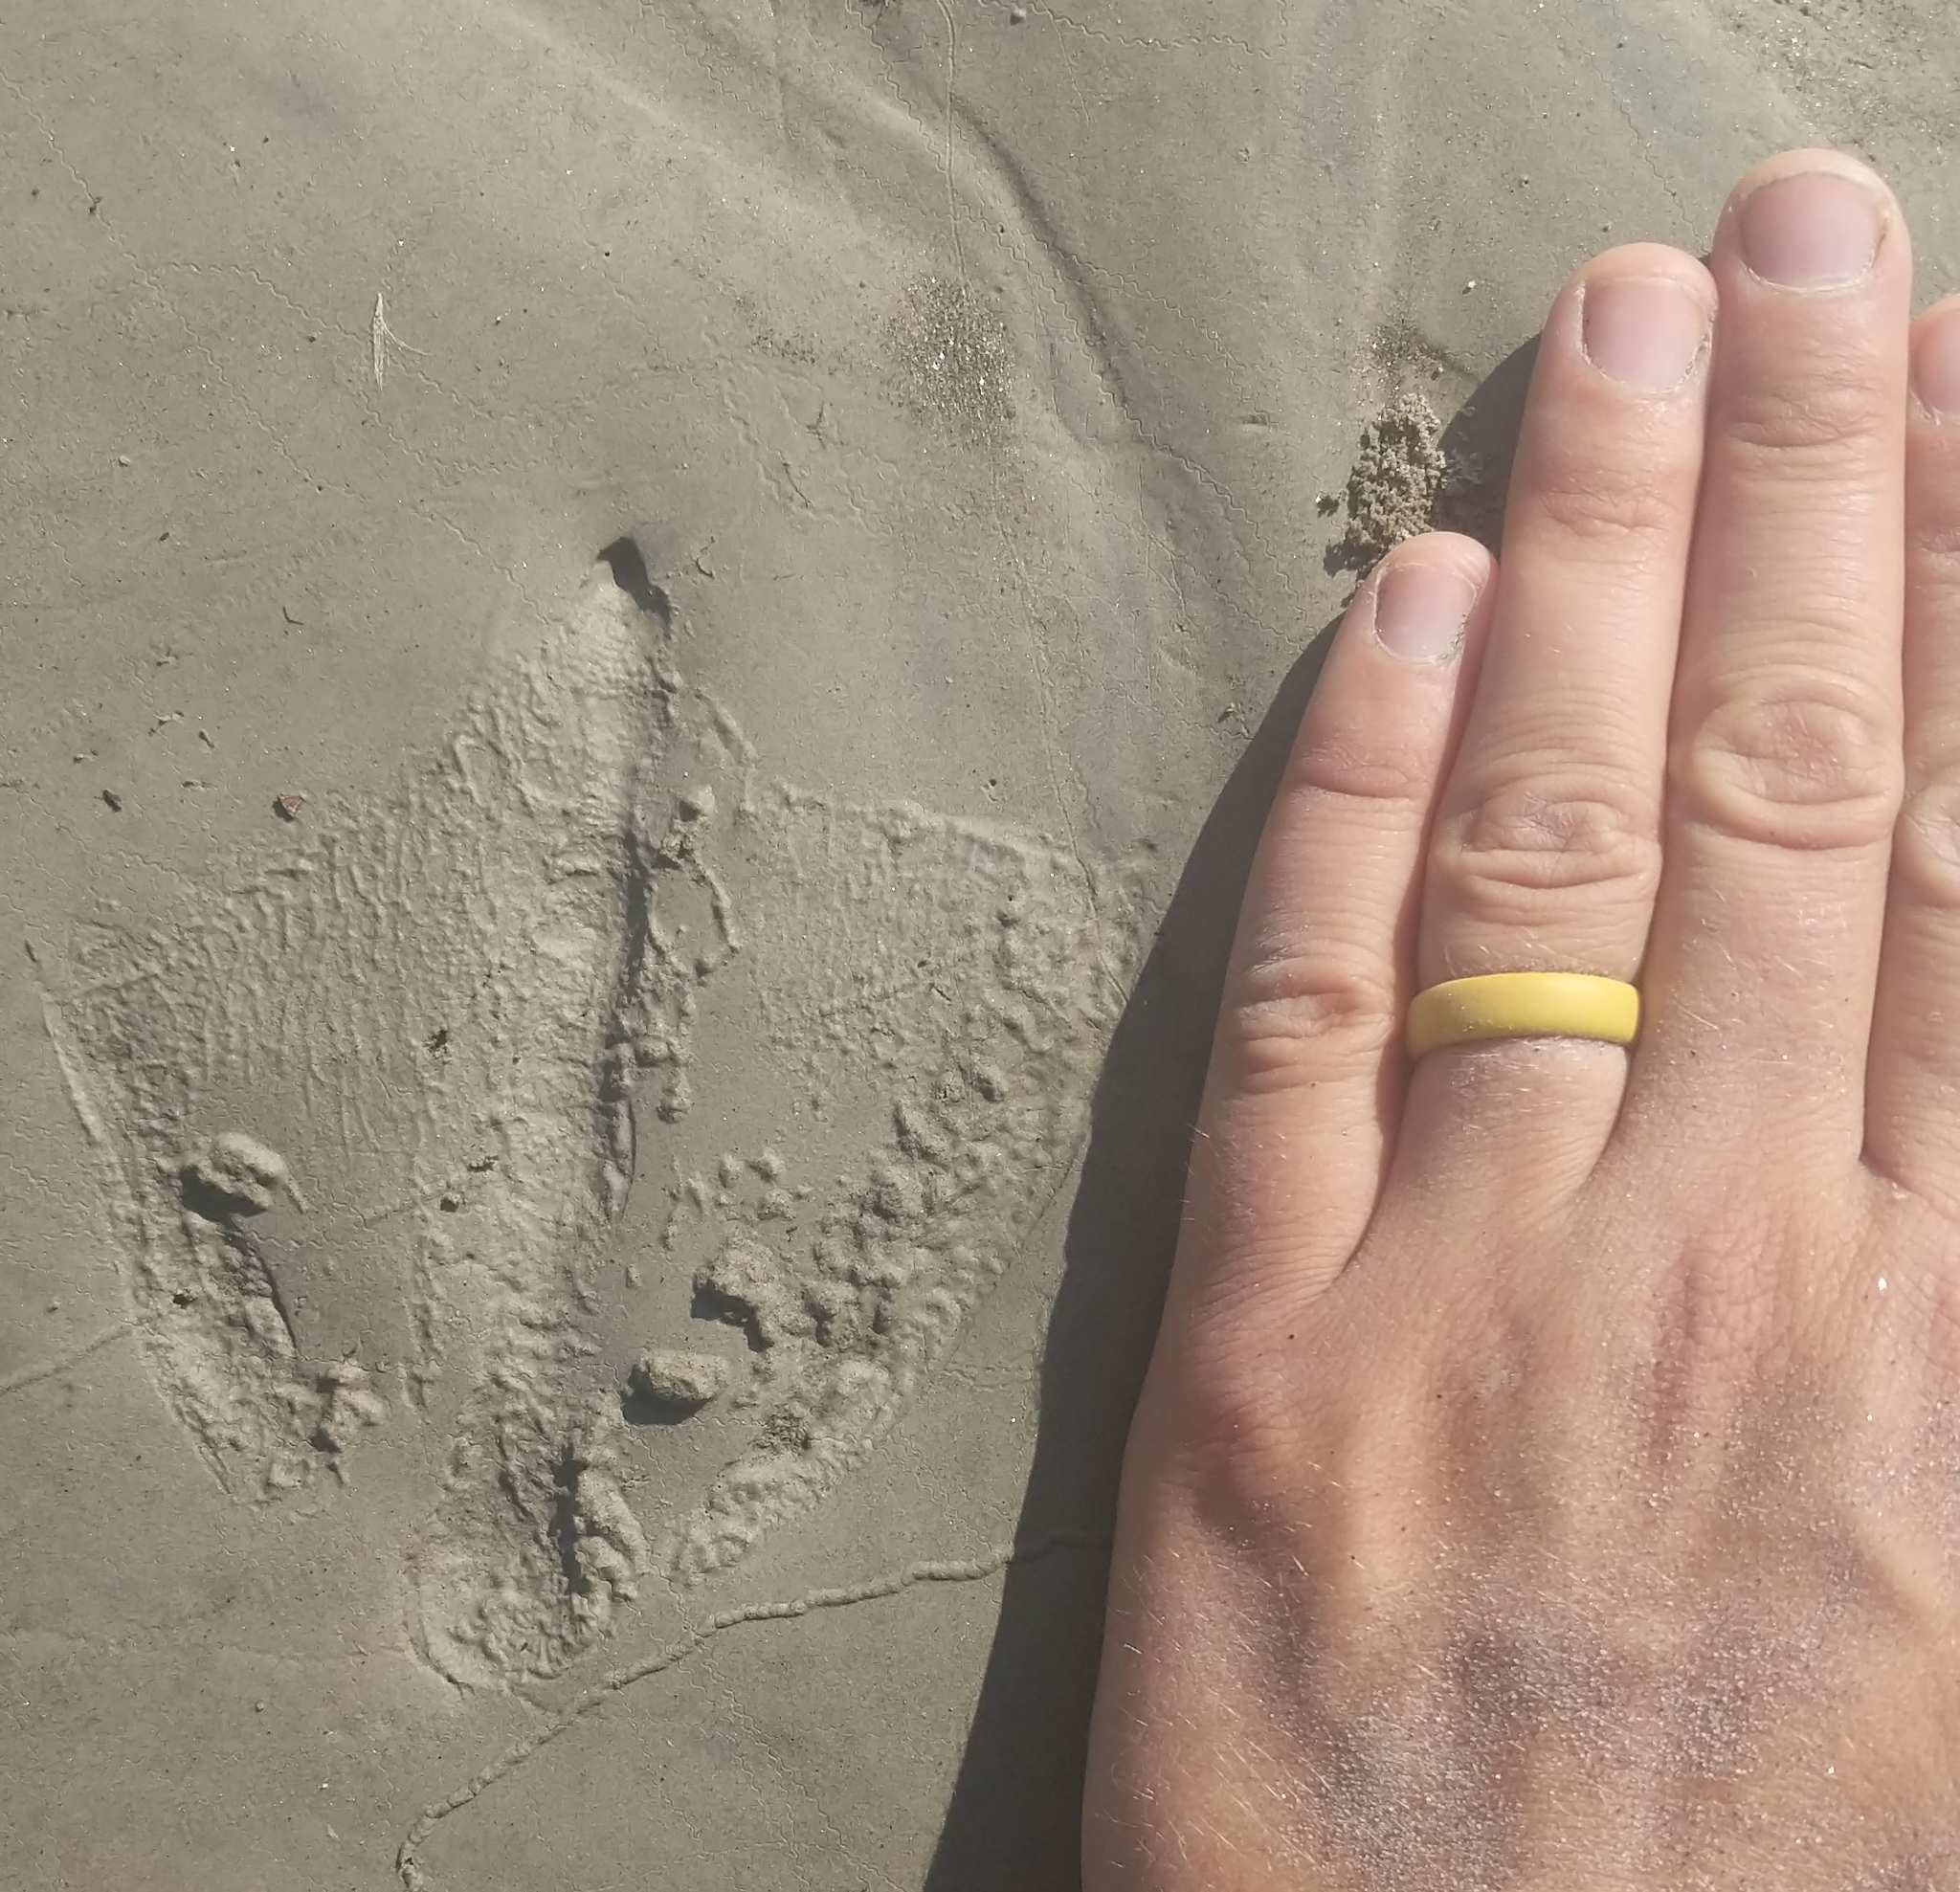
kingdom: Animalia
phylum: Chordata
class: Aves
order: Anseriformes
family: Anatidae
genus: Branta
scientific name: Branta canadensis
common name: Canada goose
